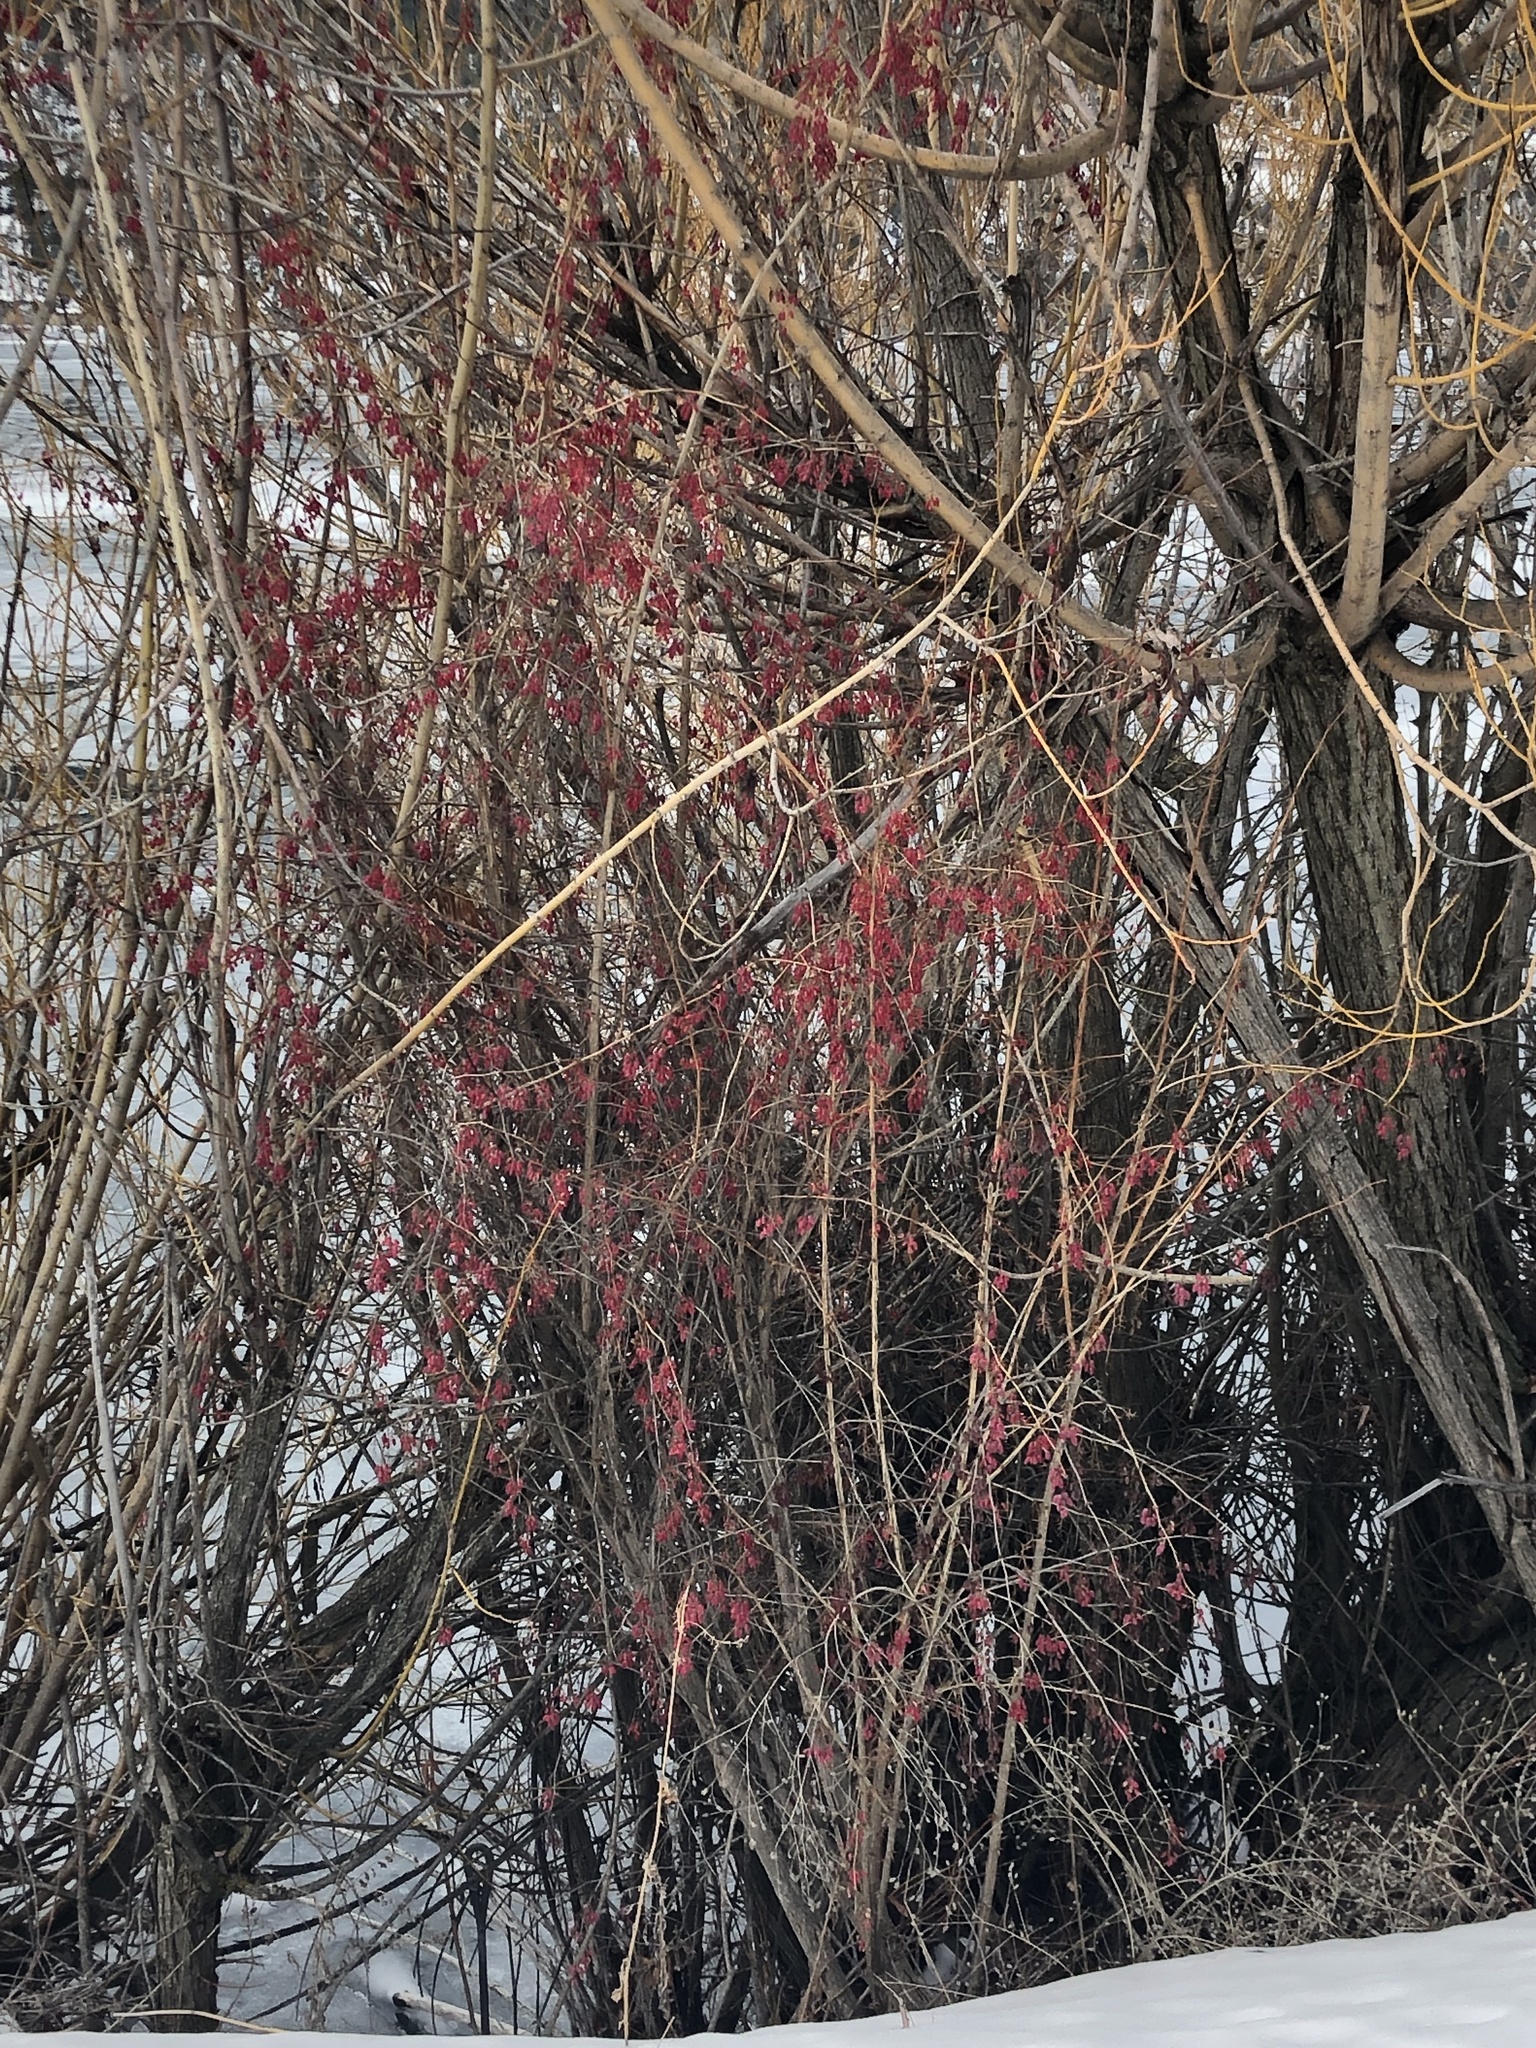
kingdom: Plantae
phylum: Tracheophyta
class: Magnoliopsida
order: Ranunculales
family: Berberidaceae
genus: Berberis
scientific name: Berberis vulgaris
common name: Barberry
